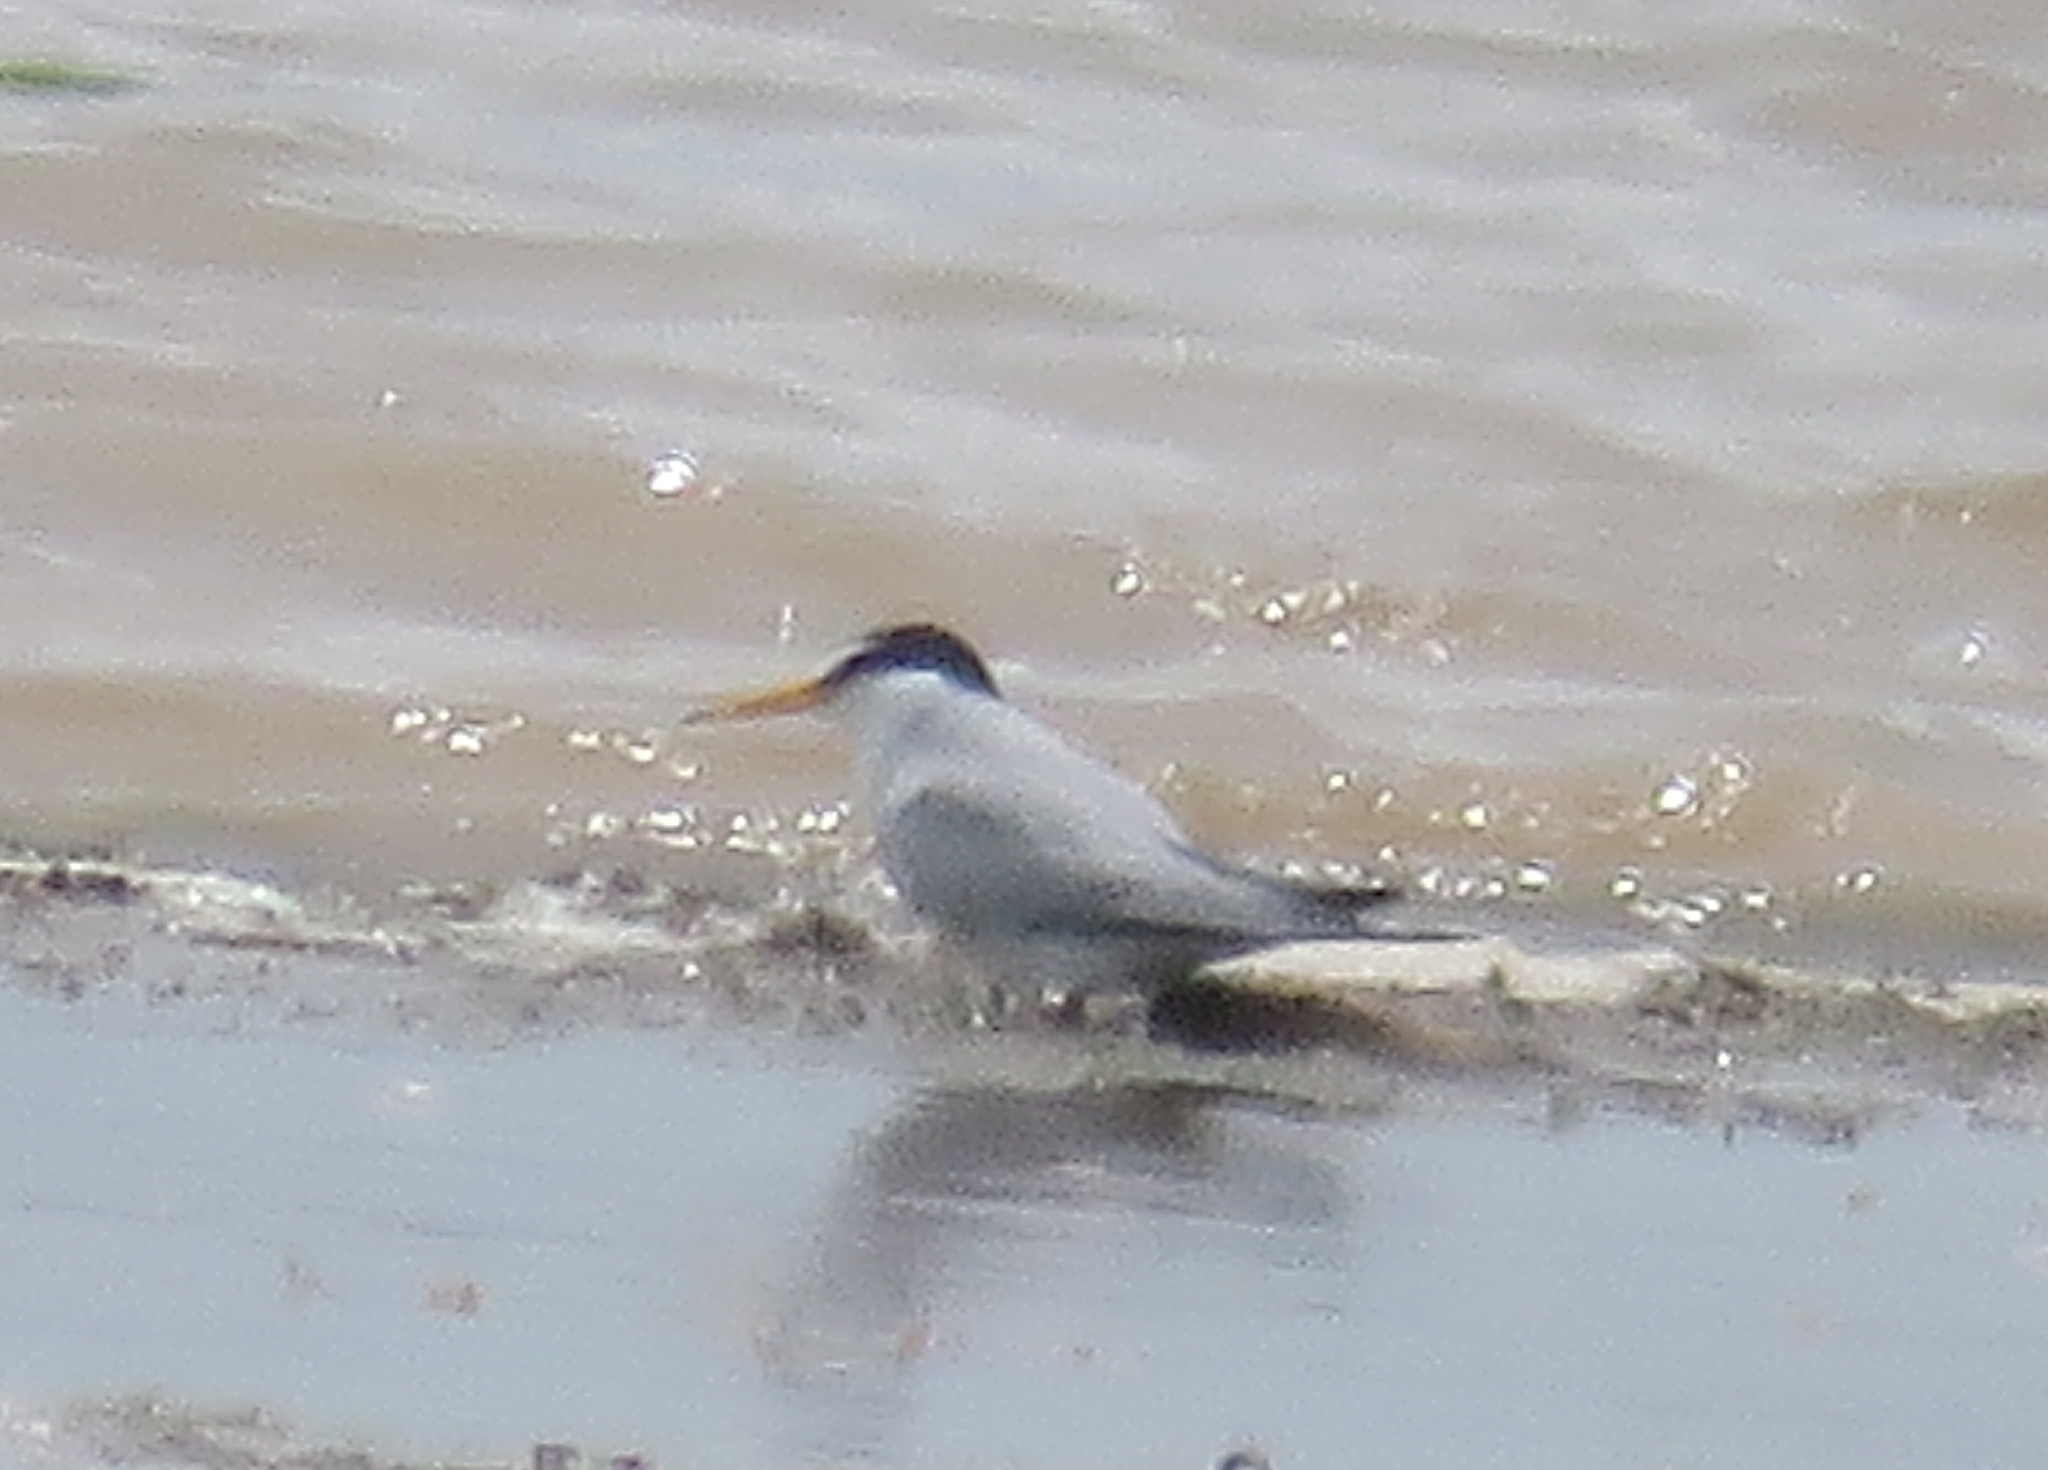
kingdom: Animalia
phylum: Chordata
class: Aves
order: Charadriiformes
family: Laridae
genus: Sternula
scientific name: Sternula antillarum
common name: Least tern
